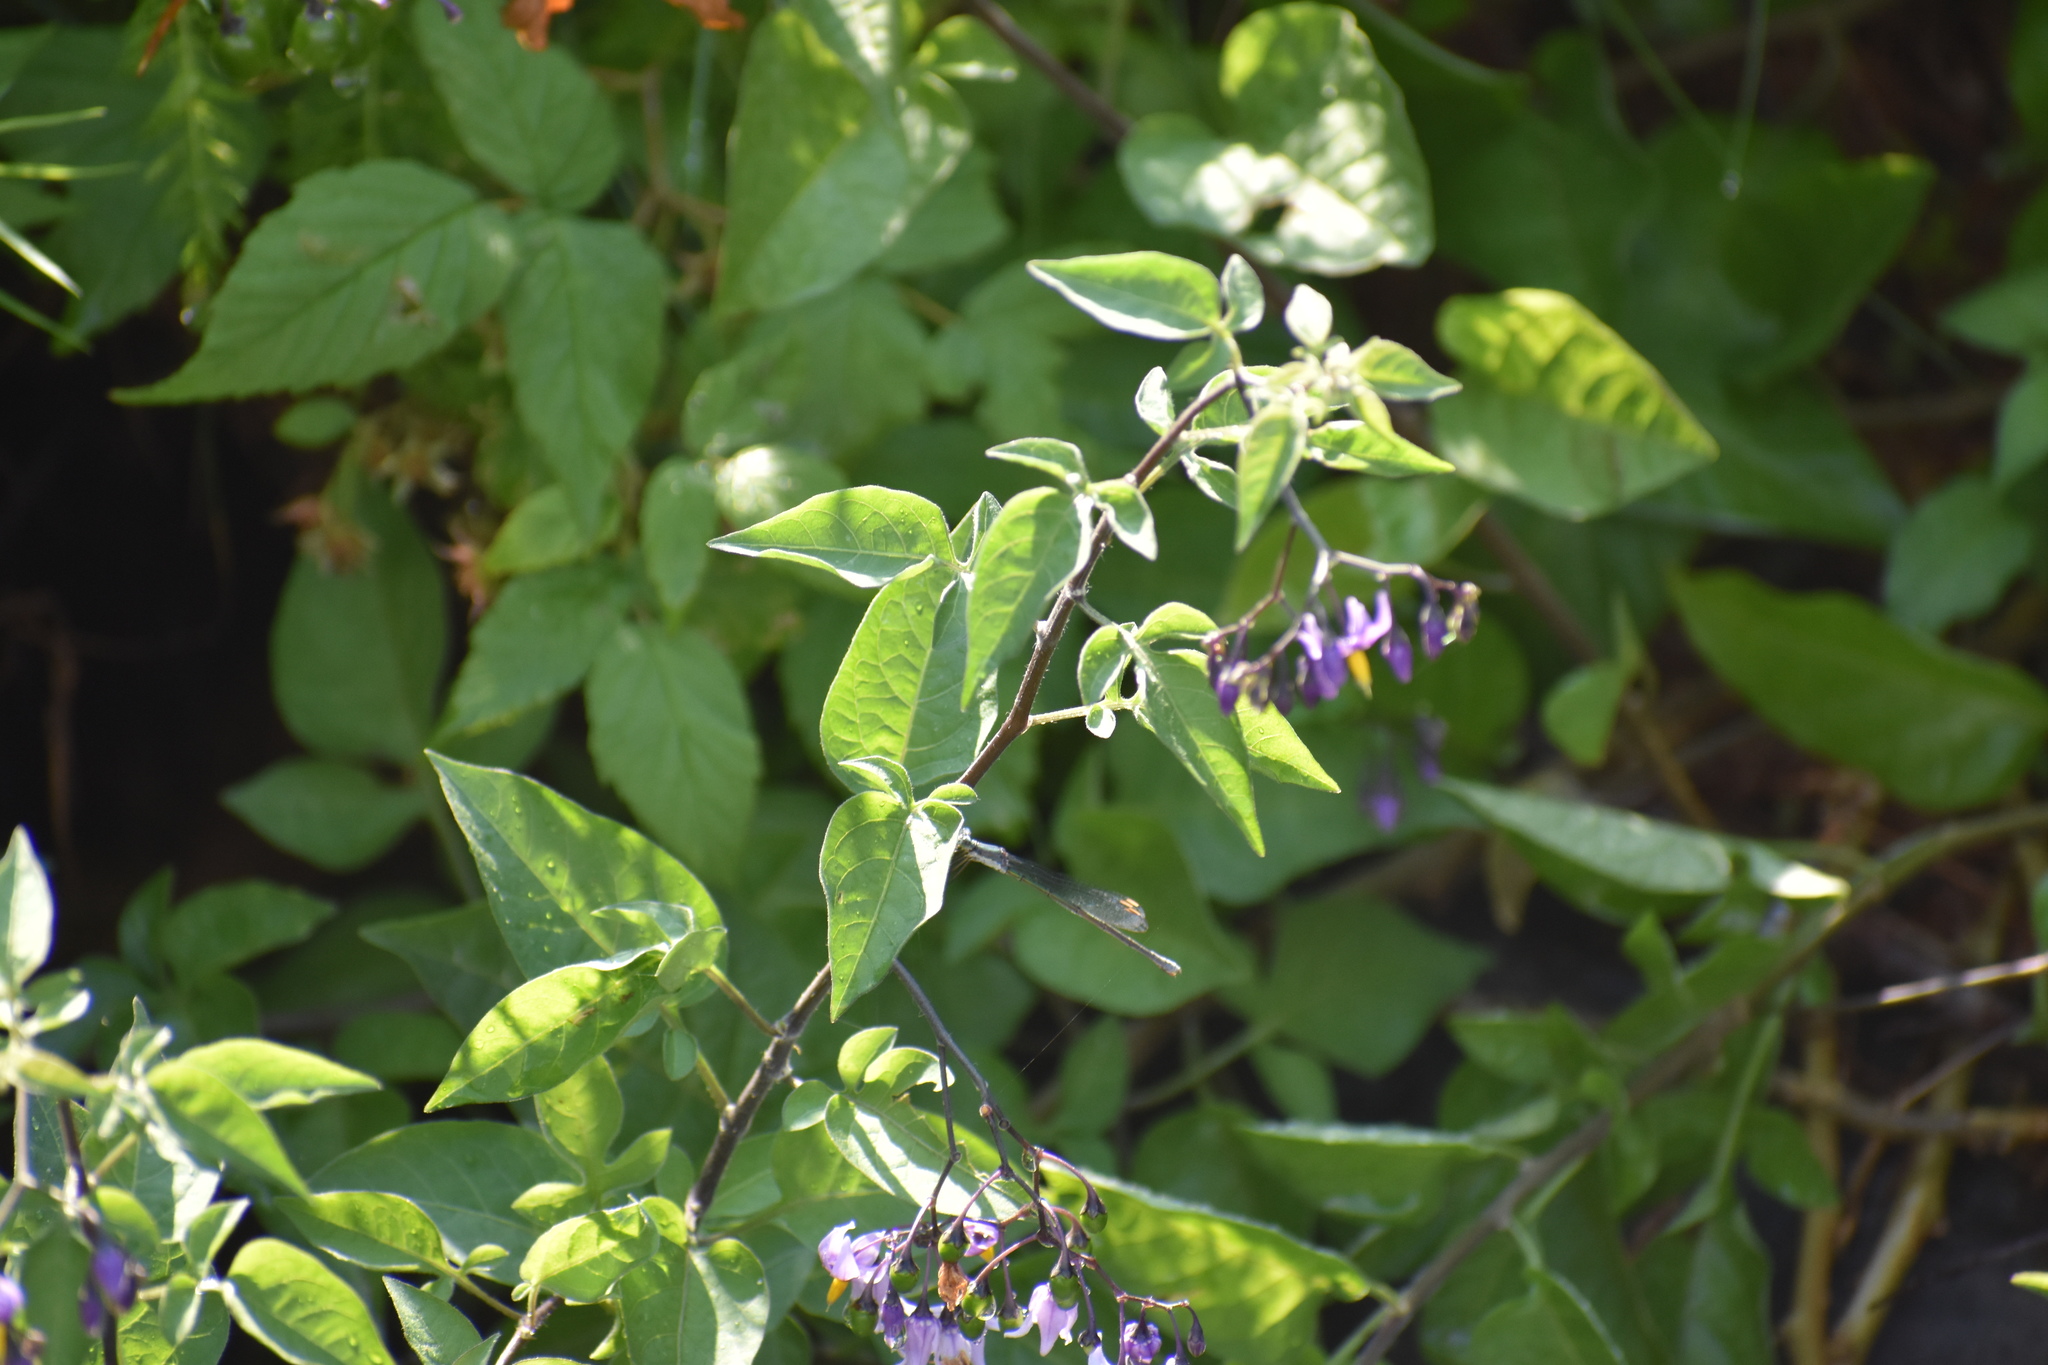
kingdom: Plantae
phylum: Tracheophyta
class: Magnoliopsida
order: Solanales
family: Solanaceae
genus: Solanum
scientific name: Solanum dulcamara
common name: Climbing nightshade
